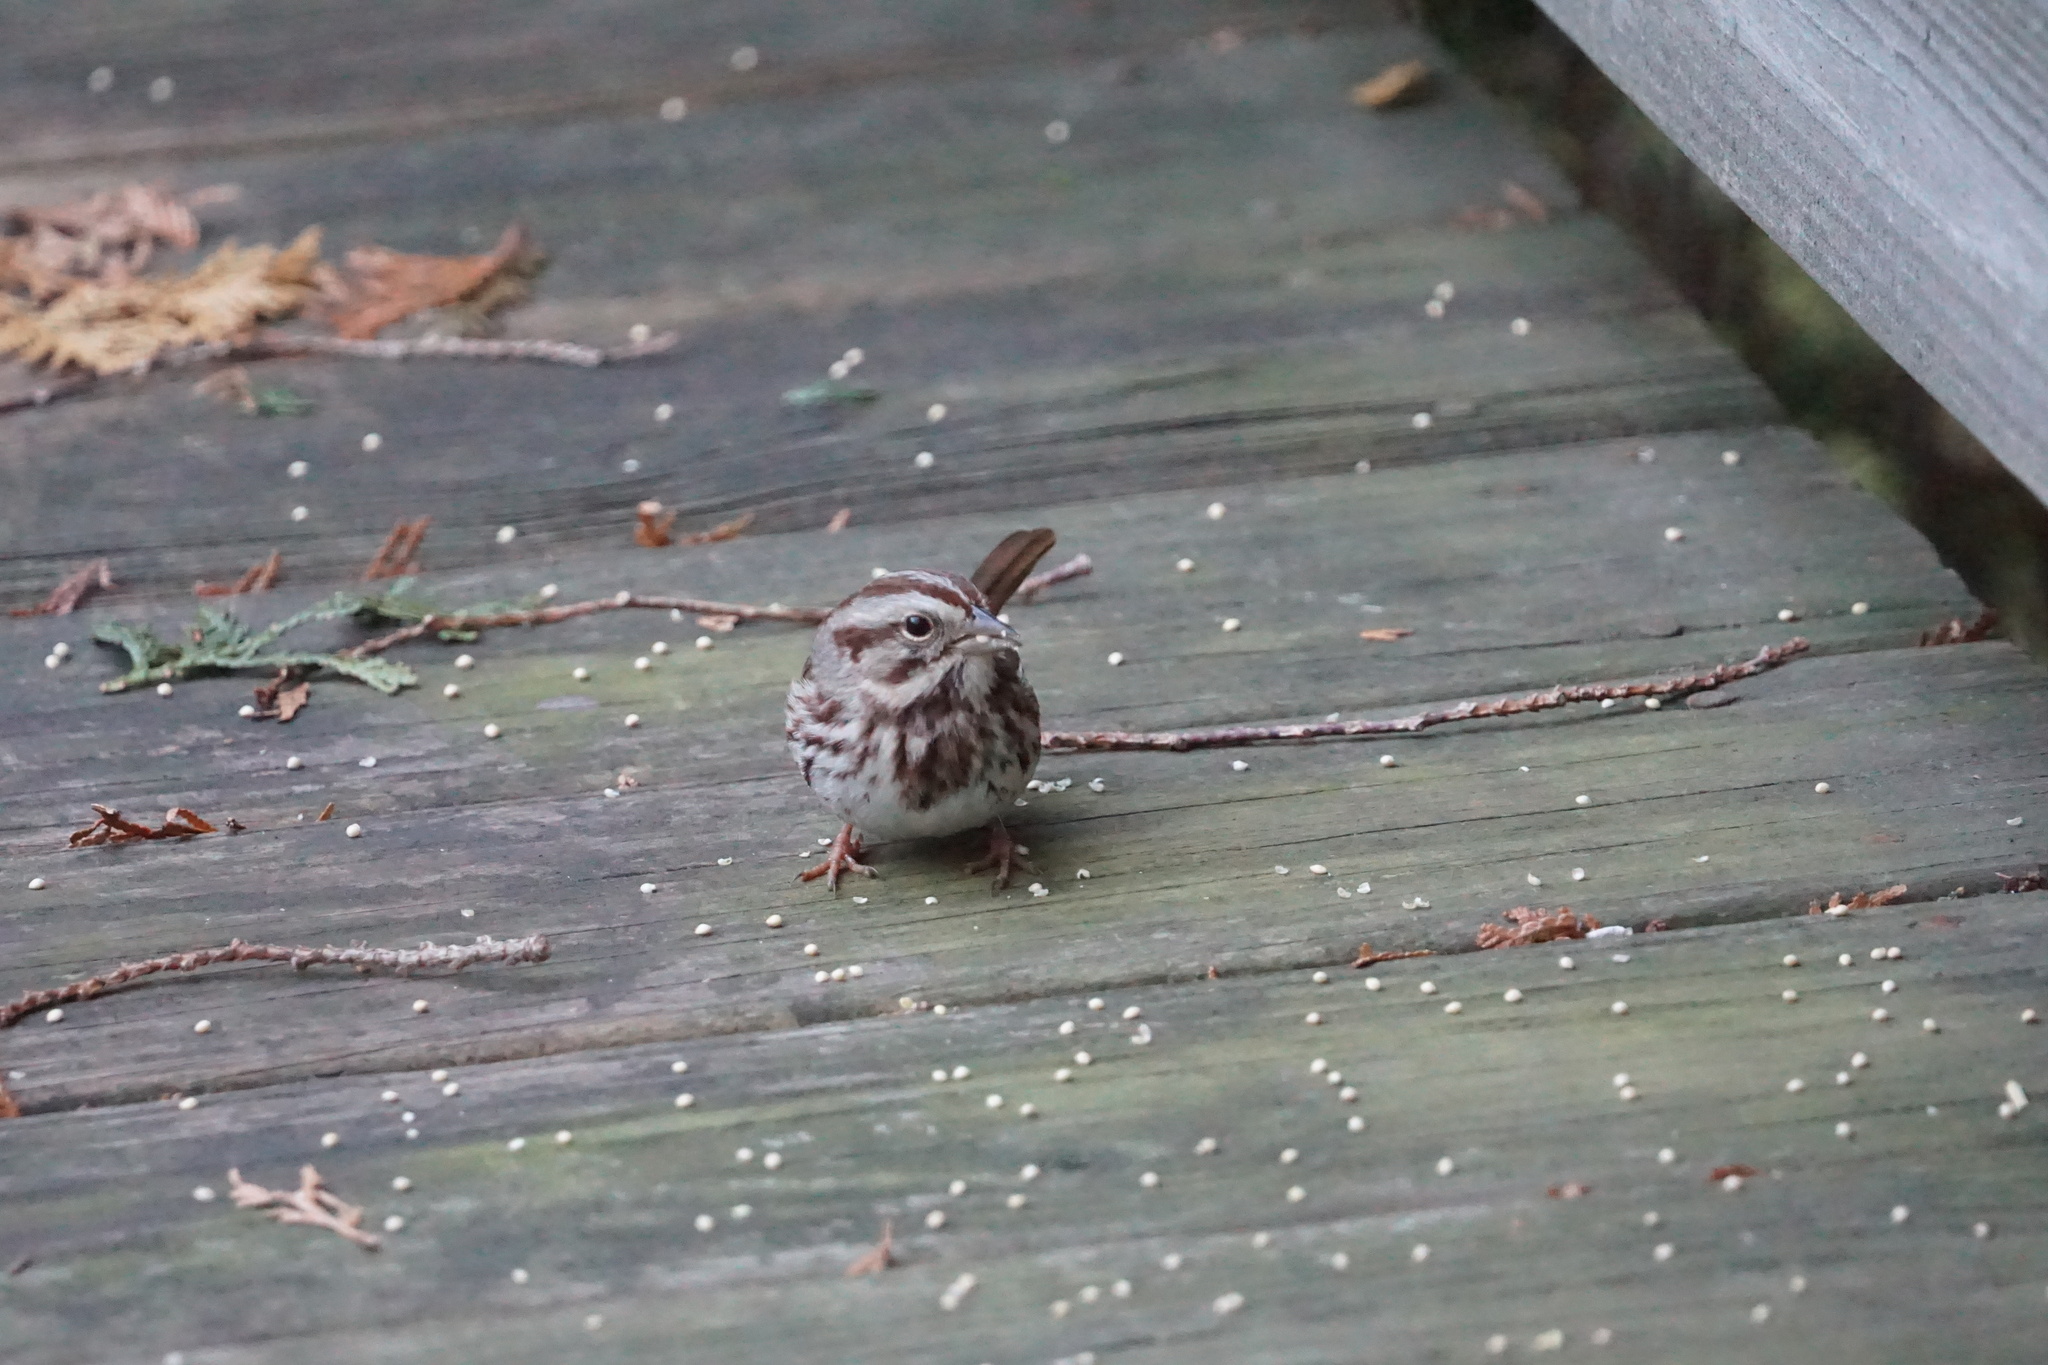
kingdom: Animalia
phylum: Chordata
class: Aves
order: Passeriformes
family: Passerellidae
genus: Melospiza
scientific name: Melospiza melodia
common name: Song sparrow
